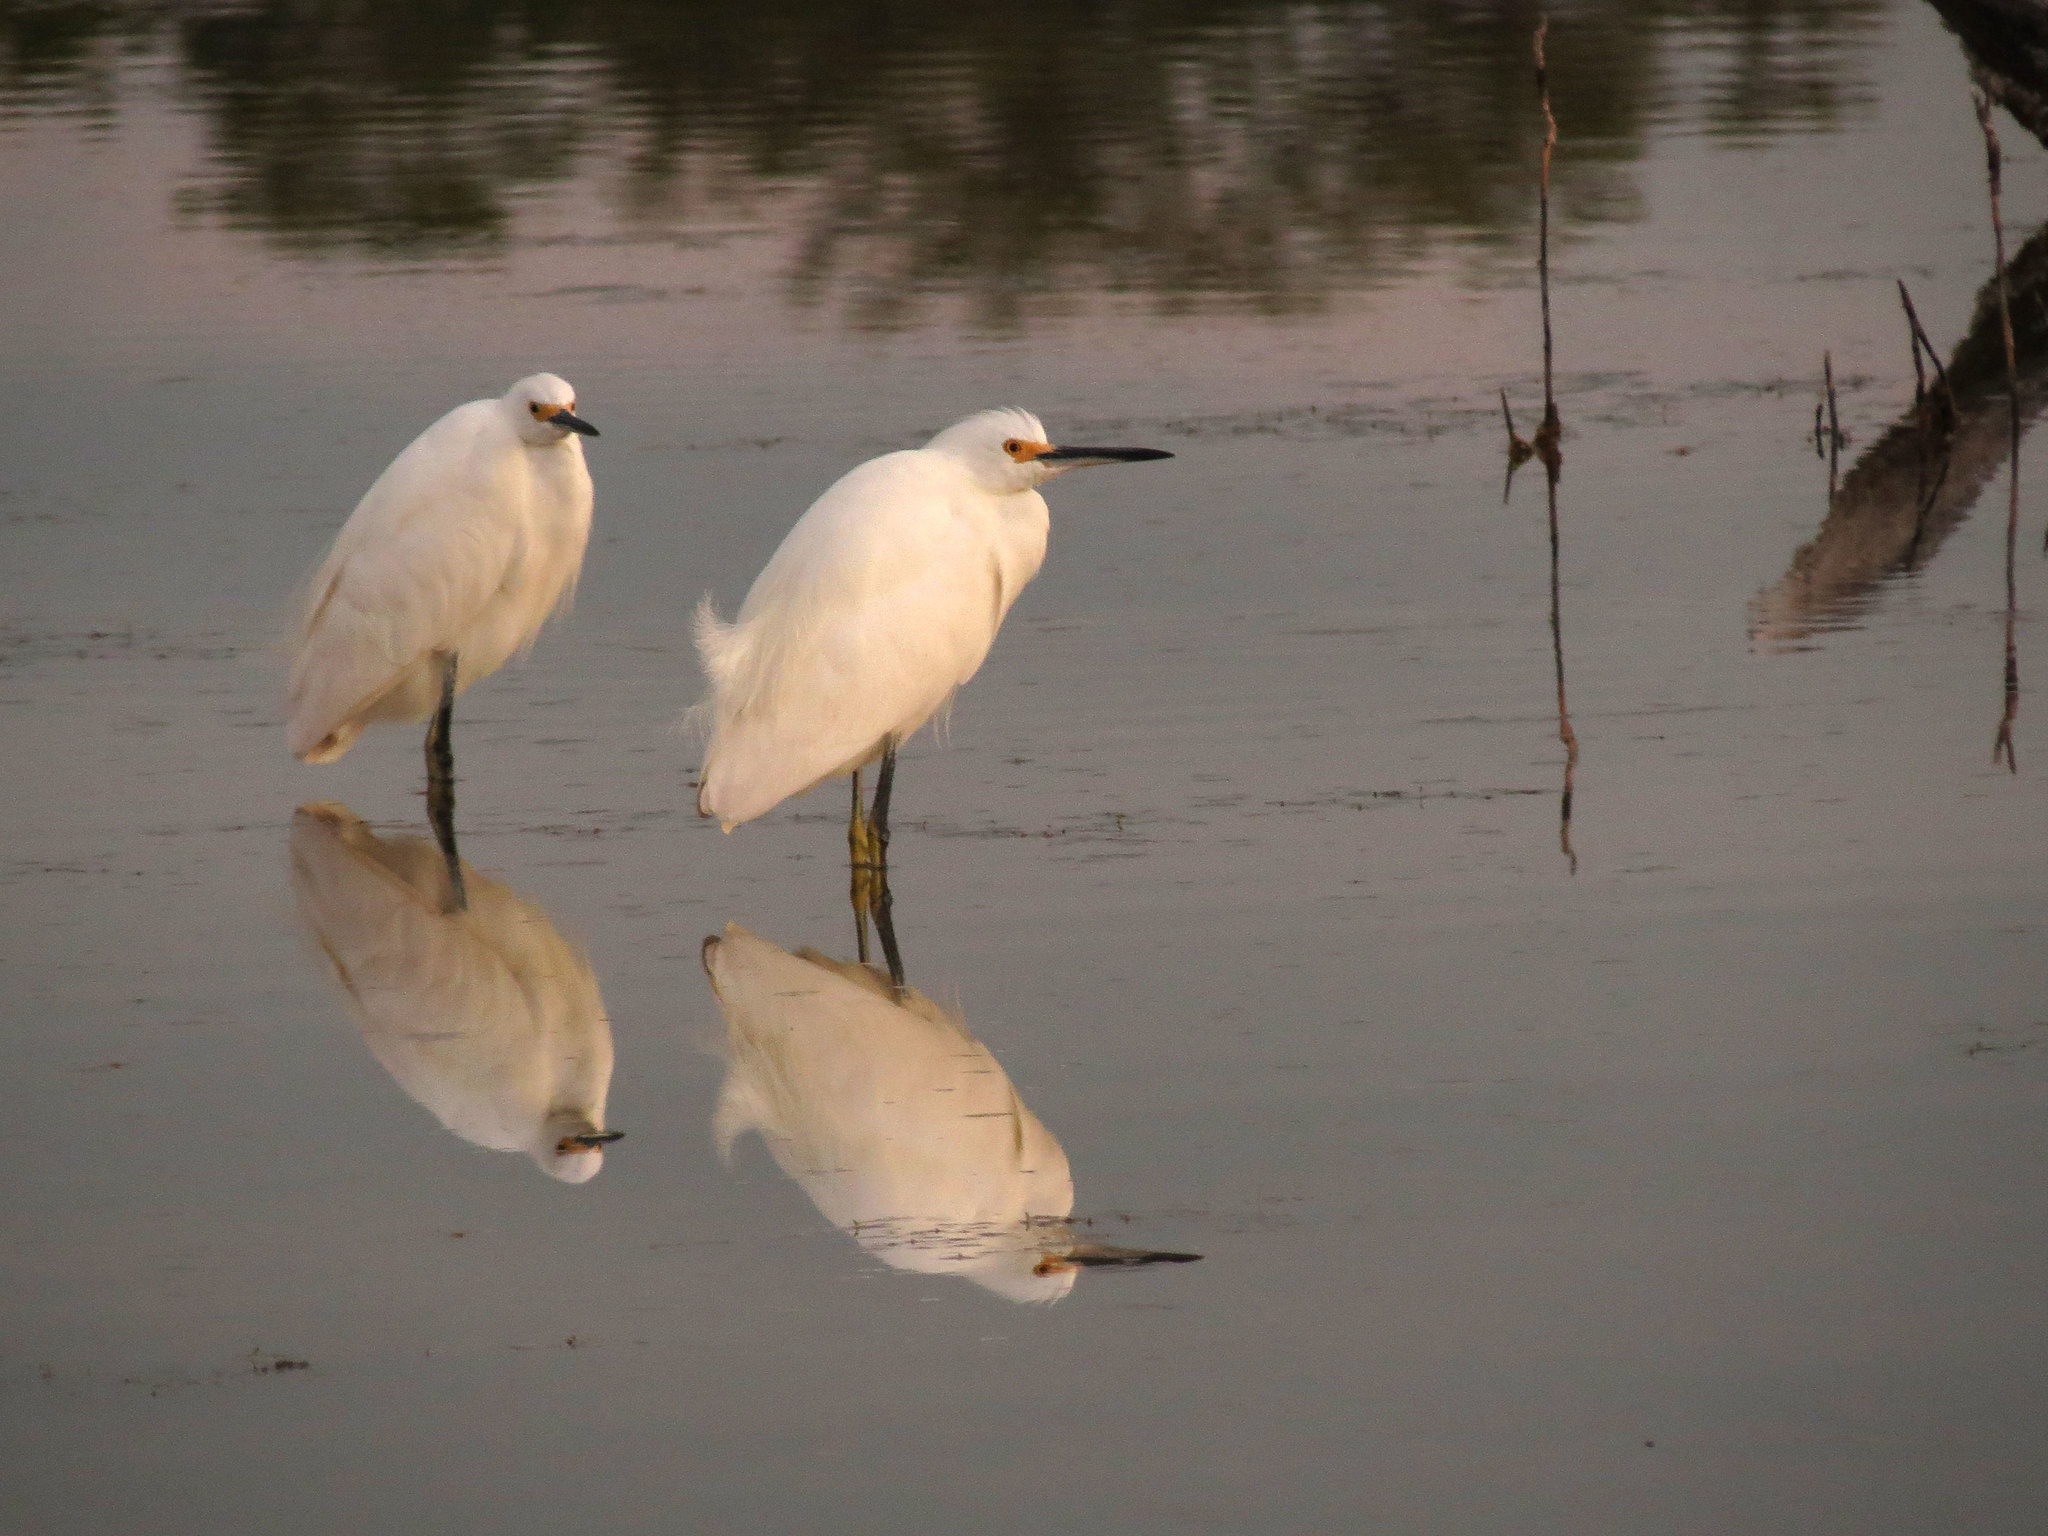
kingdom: Animalia
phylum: Chordata
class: Aves
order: Pelecaniformes
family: Ardeidae
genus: Egretta
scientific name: Egretta thula
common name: Snowy egret
